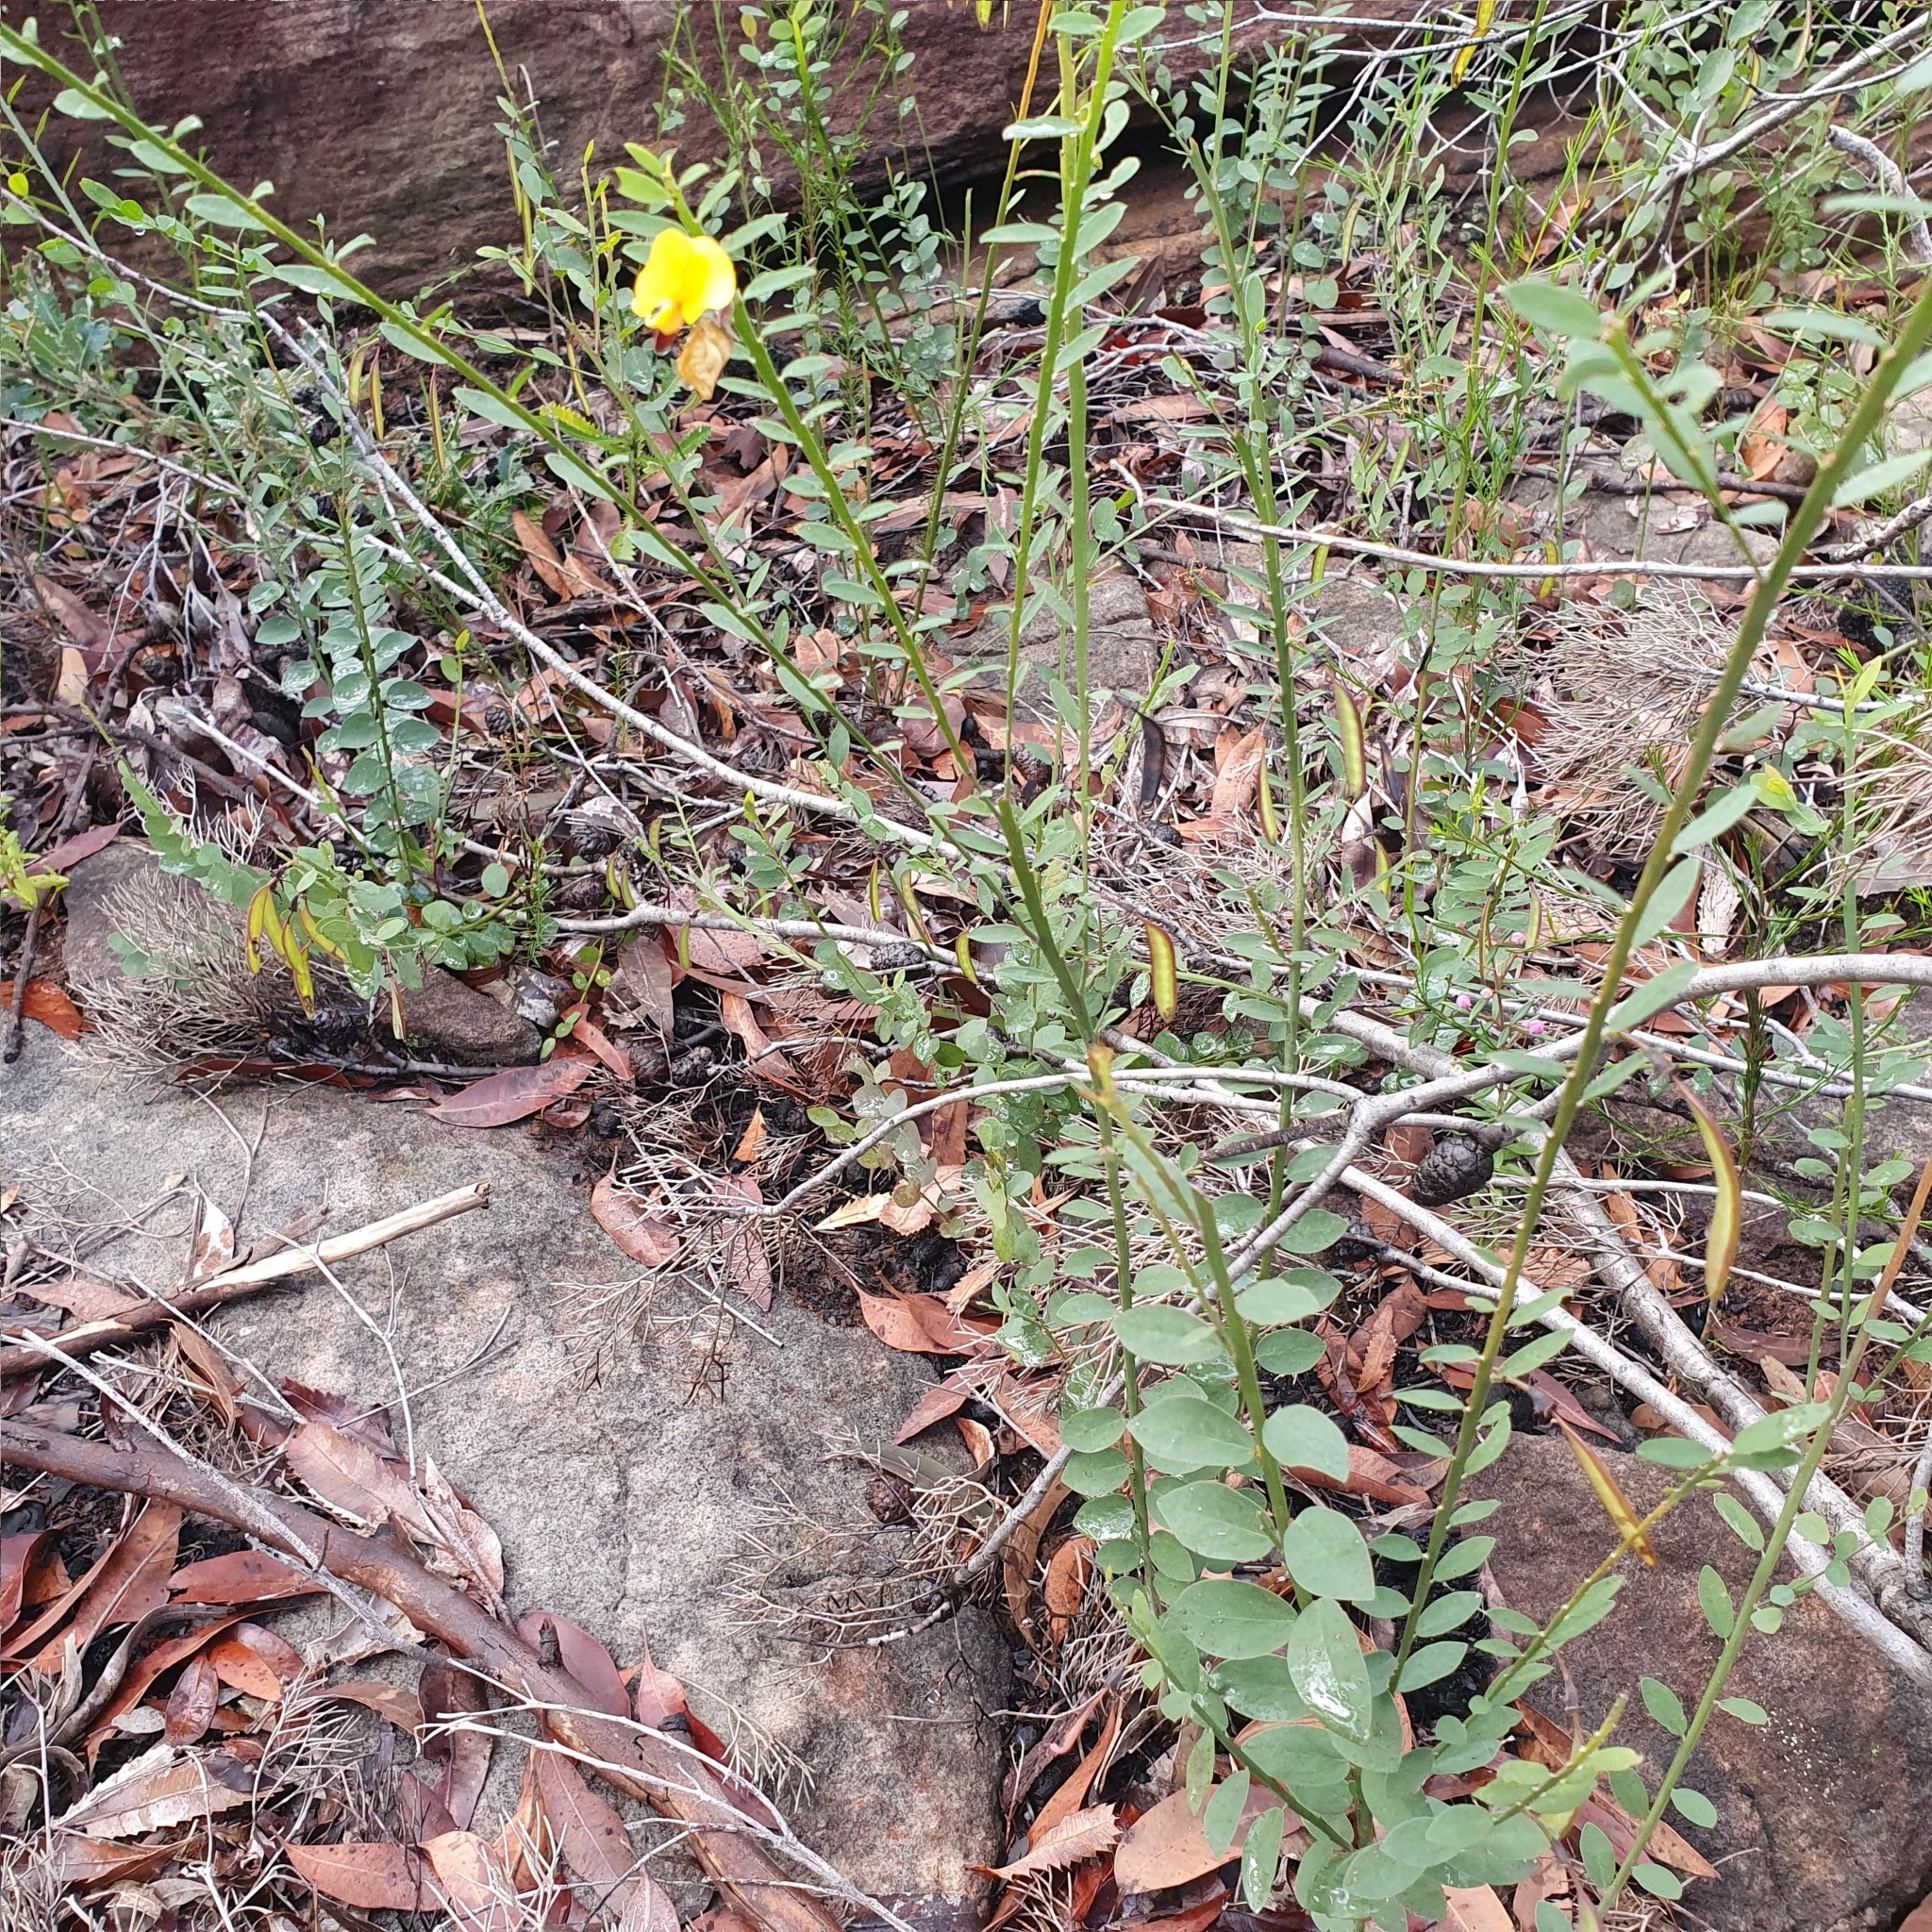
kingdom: Plantae
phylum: Tracheophyta
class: Magnoliopsida
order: Fabales
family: Fabaceae
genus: Bossiaea
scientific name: Bossiaea heterophylla
